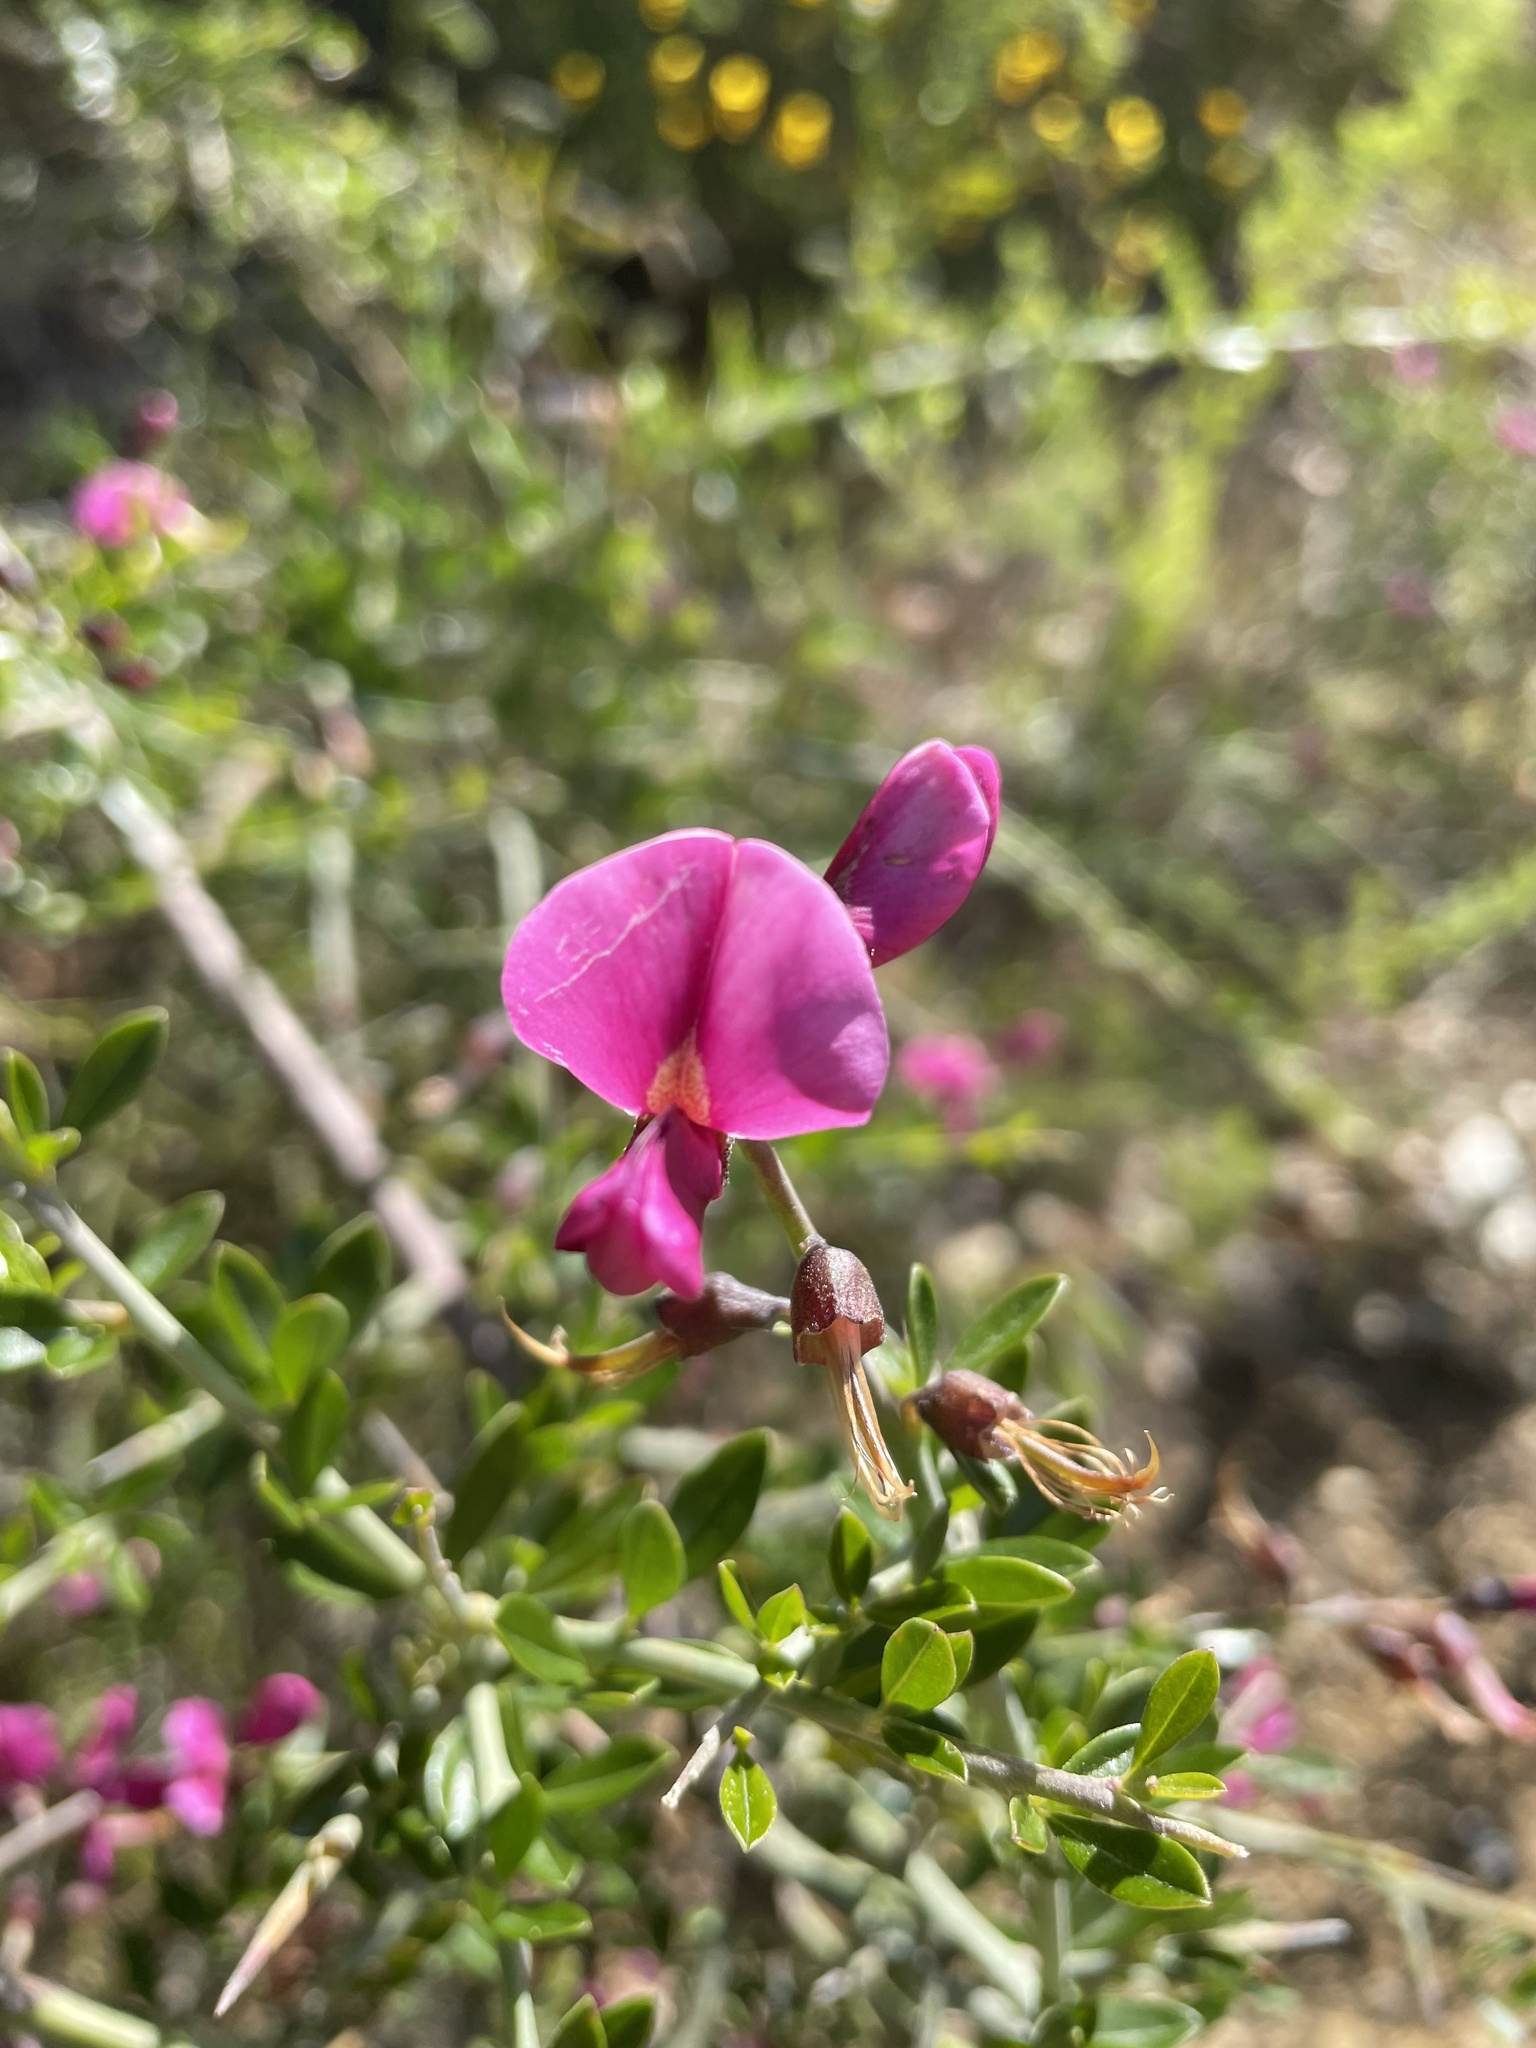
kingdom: Plantae
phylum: Tracheophyta
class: Magnoliopsida
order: Fabales
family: Fabaceae
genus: Pickeringia
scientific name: Pickeringia montana
